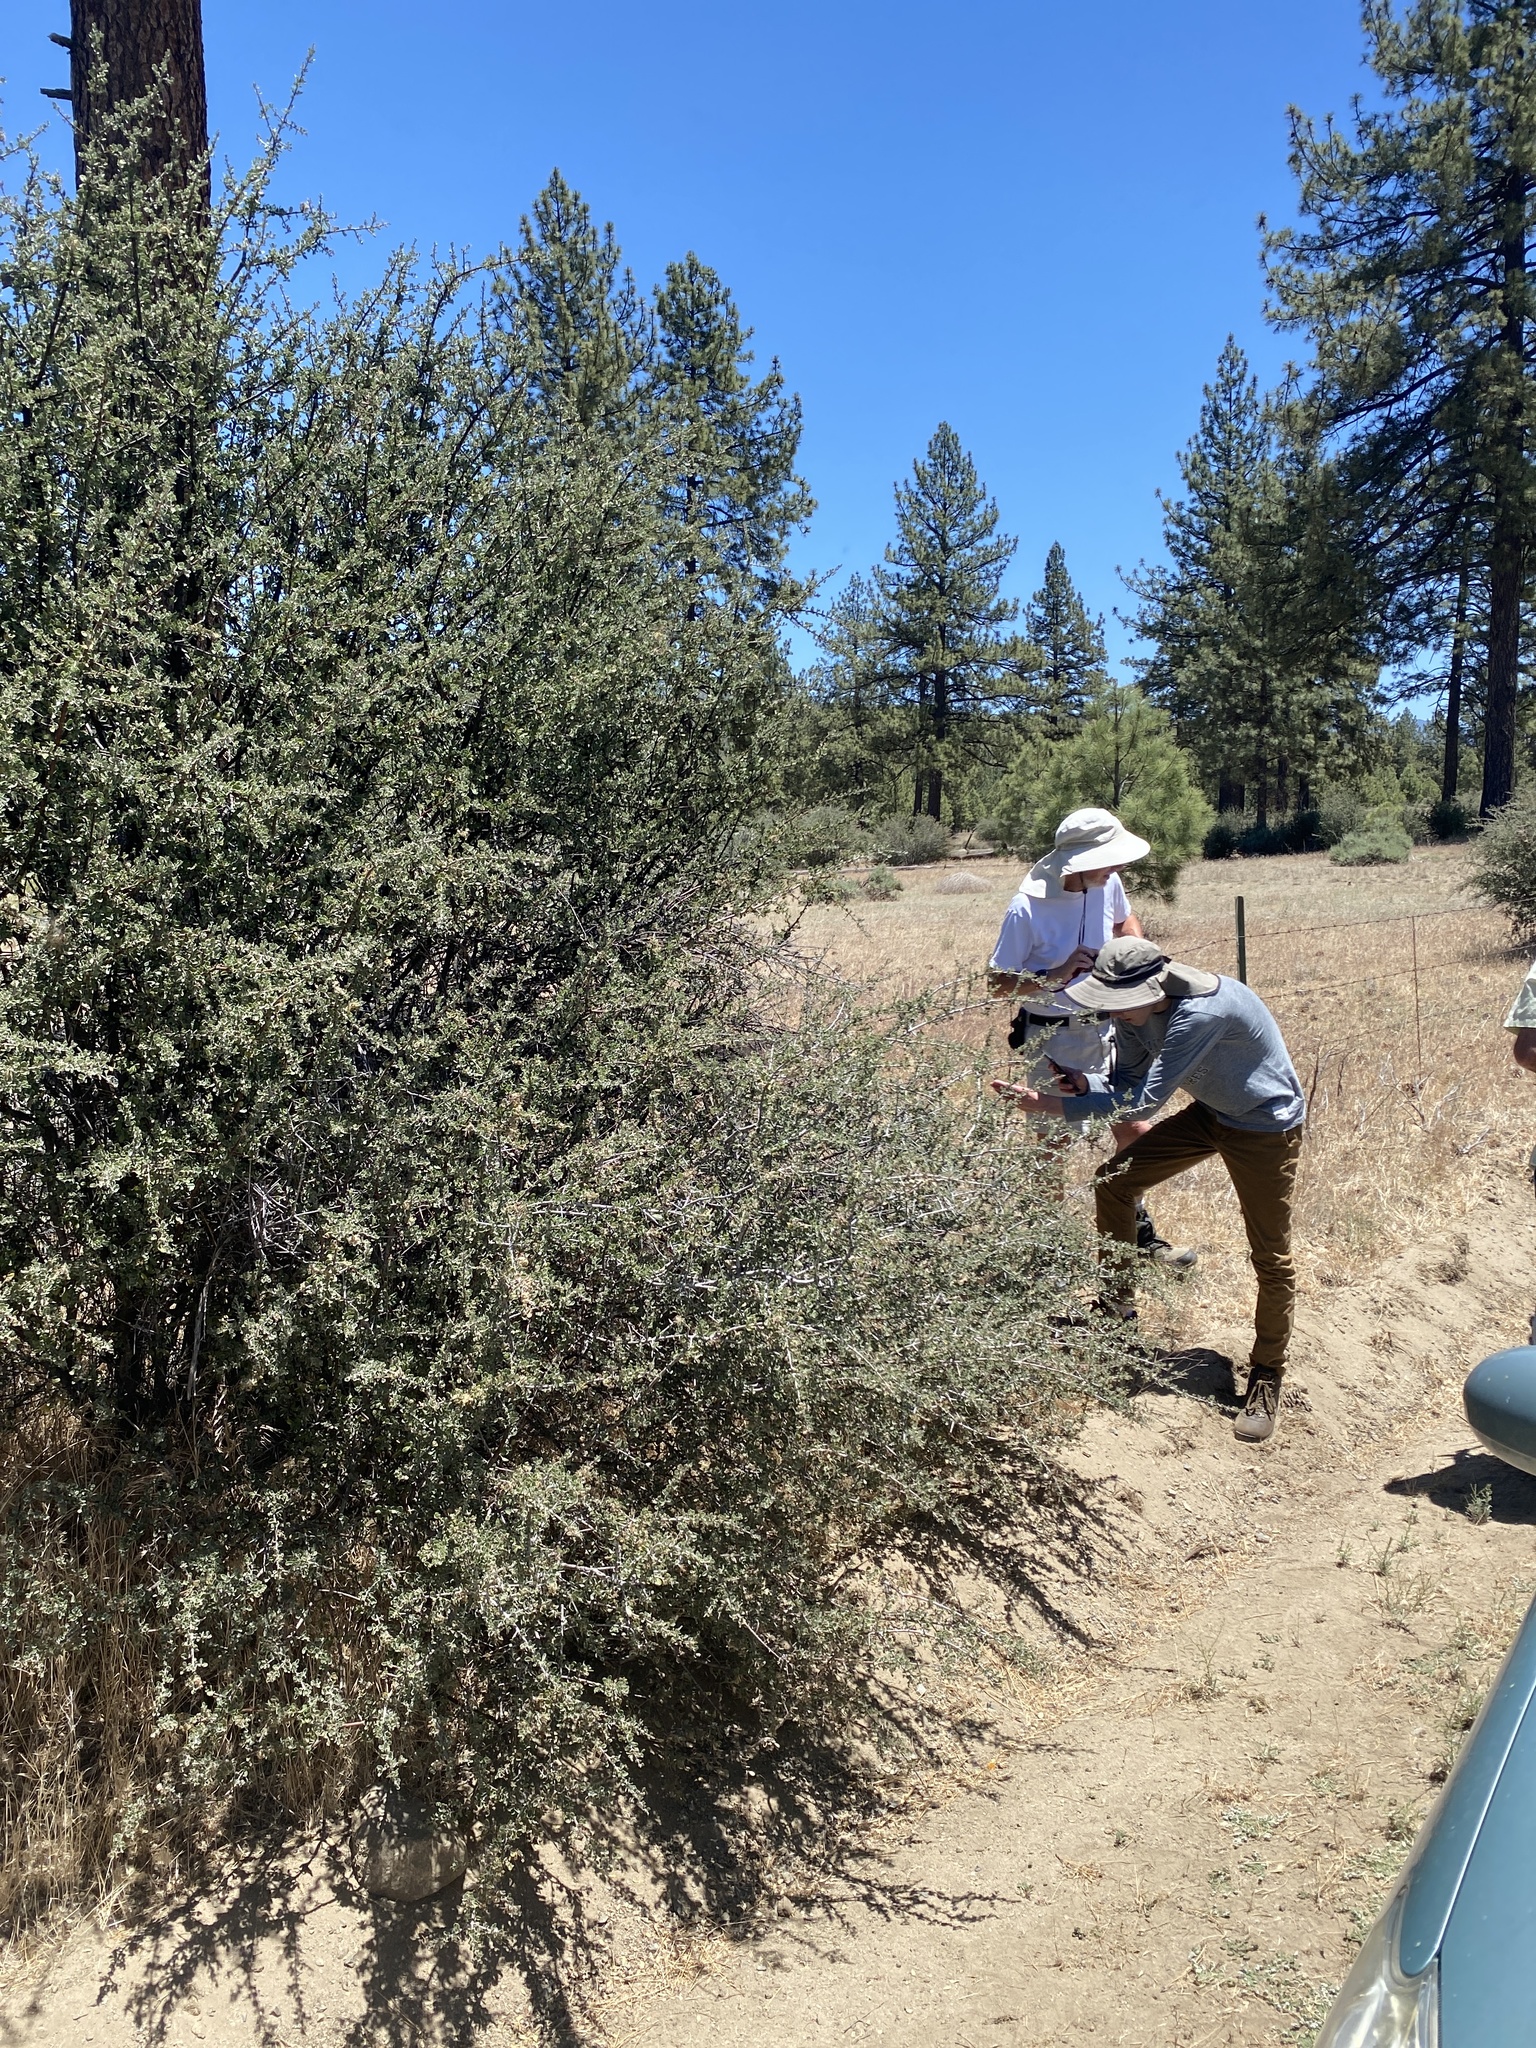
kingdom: Plantae
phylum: Tracheophyta
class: Magnoliopsida
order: Rosales
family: Rhamnaceae
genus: Ceanothus
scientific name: Ceanothus pauciflorus
